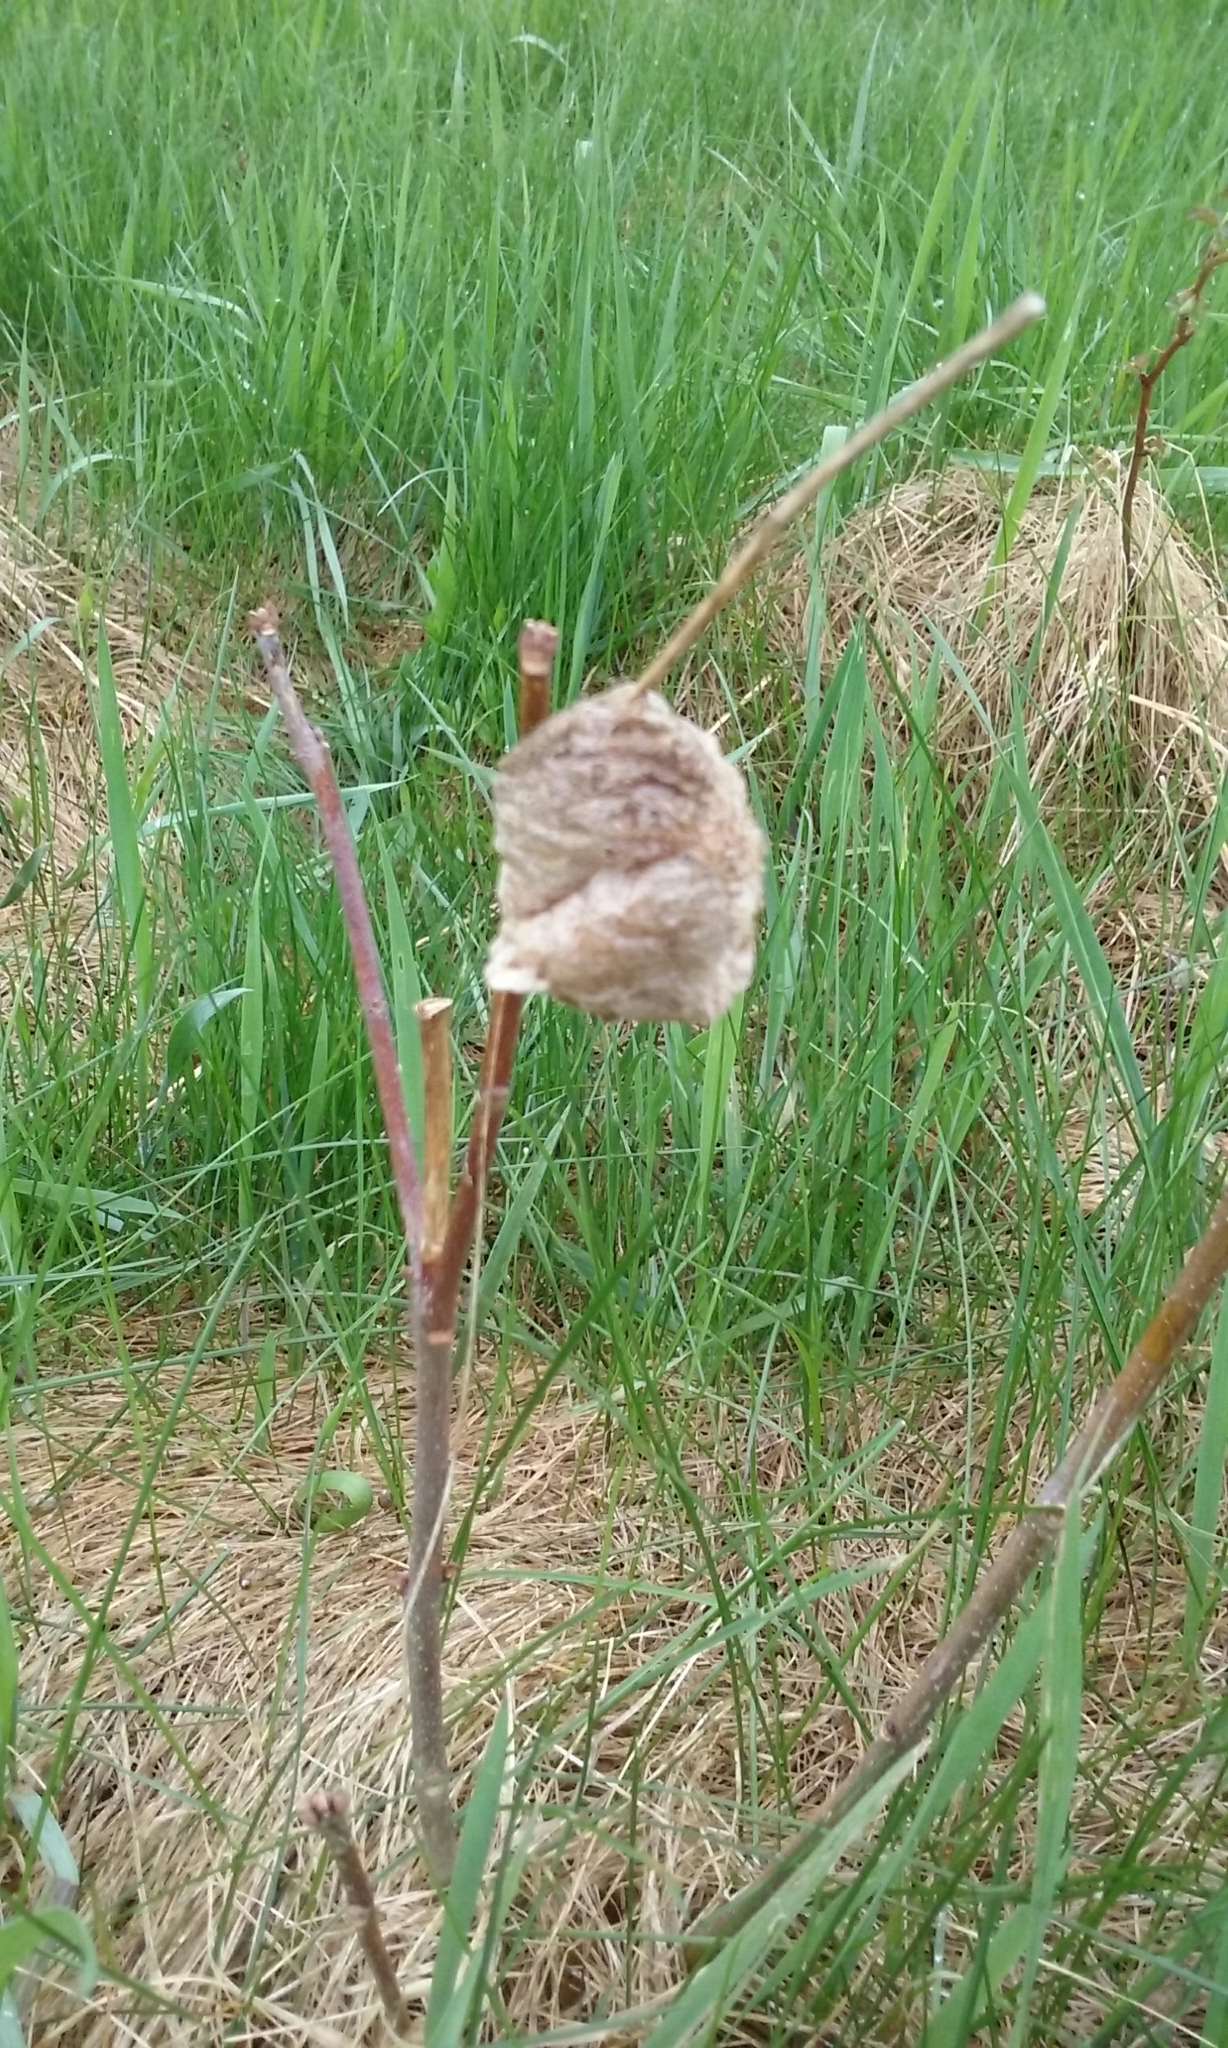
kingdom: Animalia
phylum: Arthropoda
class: Insecta
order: Mantodea
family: Mantidae
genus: Tenodera
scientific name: Tenodera sinensis
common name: Chinese mantis
